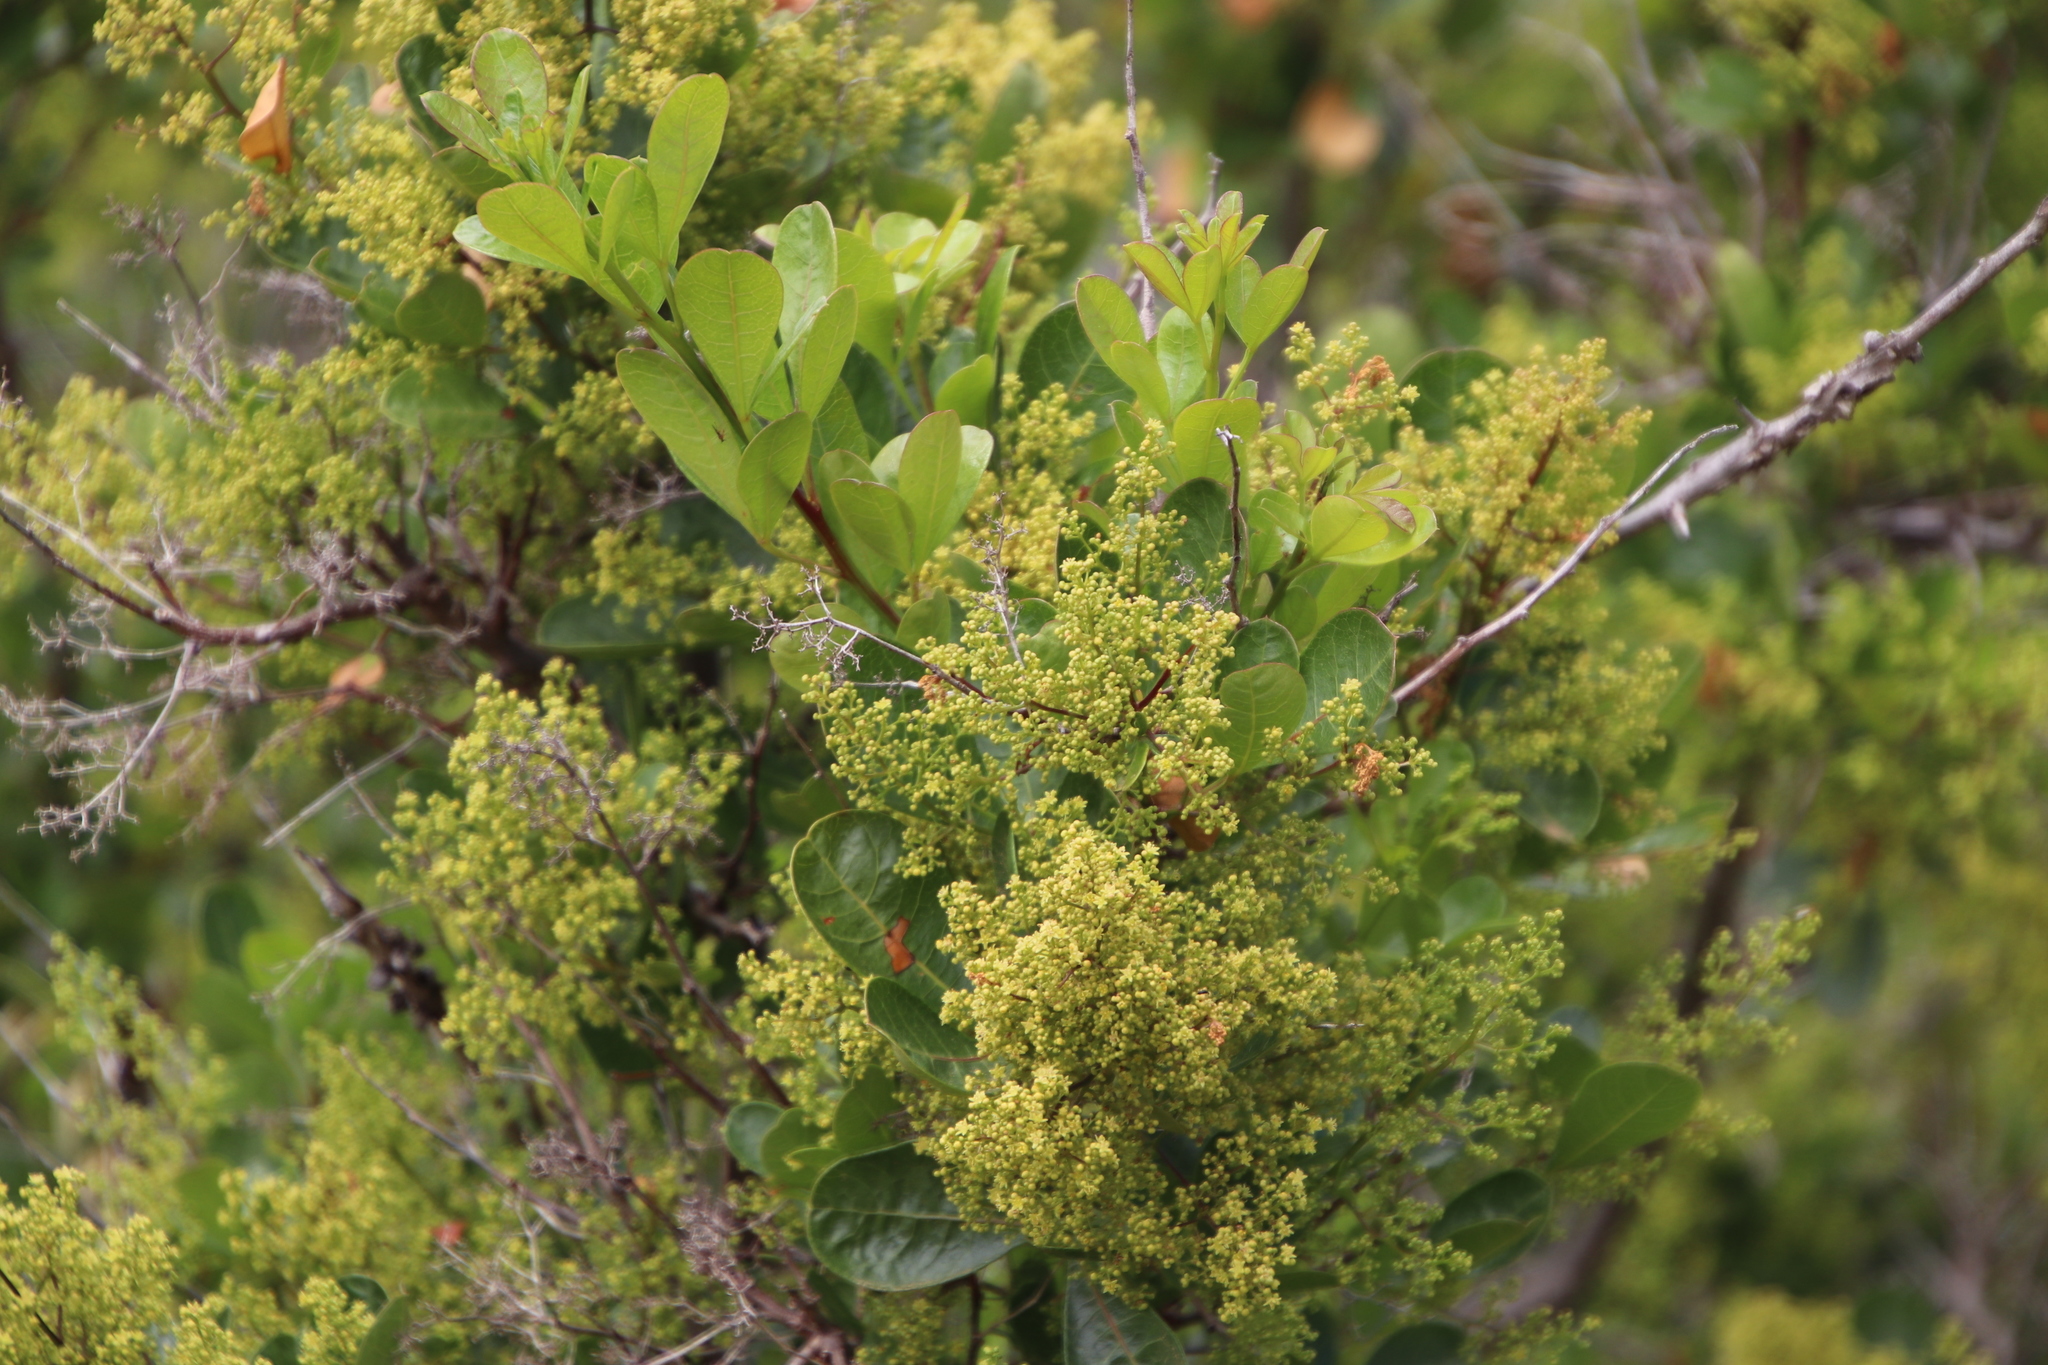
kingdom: Plantae
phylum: Tracheophyta
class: Magnoliopsida
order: Sapindales
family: Anacardiaceae
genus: Searsia
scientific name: Searsia laevigata
